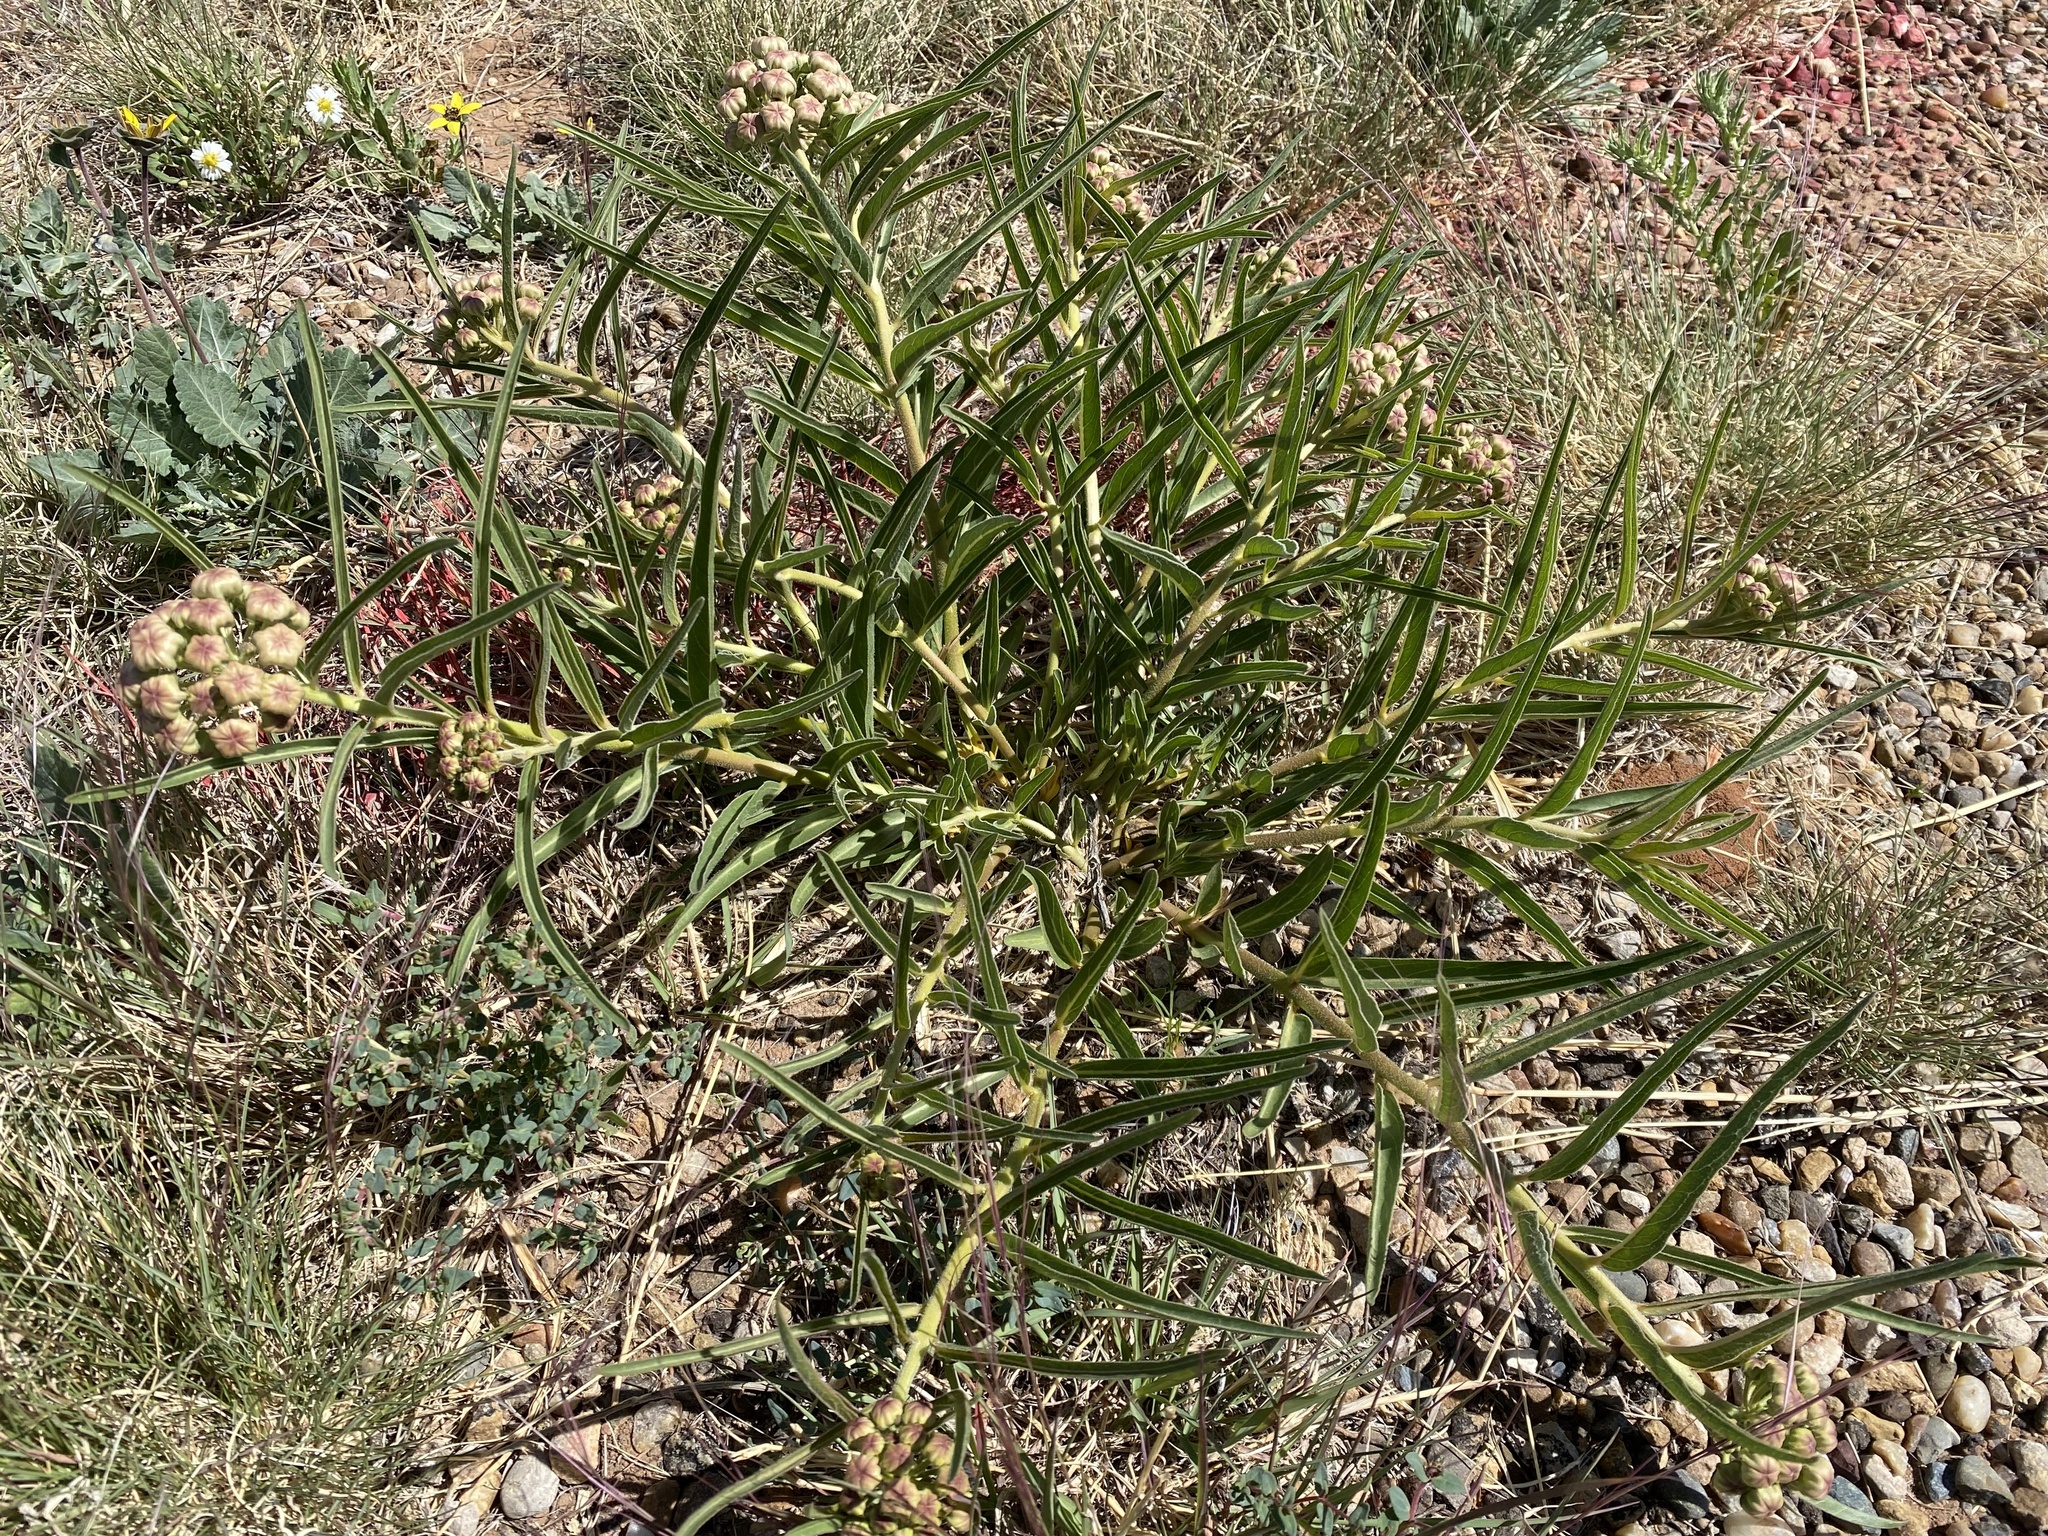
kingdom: Plantae
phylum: Tracheophyta
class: Magnoliopsida
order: Gentianales
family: Apocynaceae
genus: Asclepias
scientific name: Asclepias asperula
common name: Antelope horns
